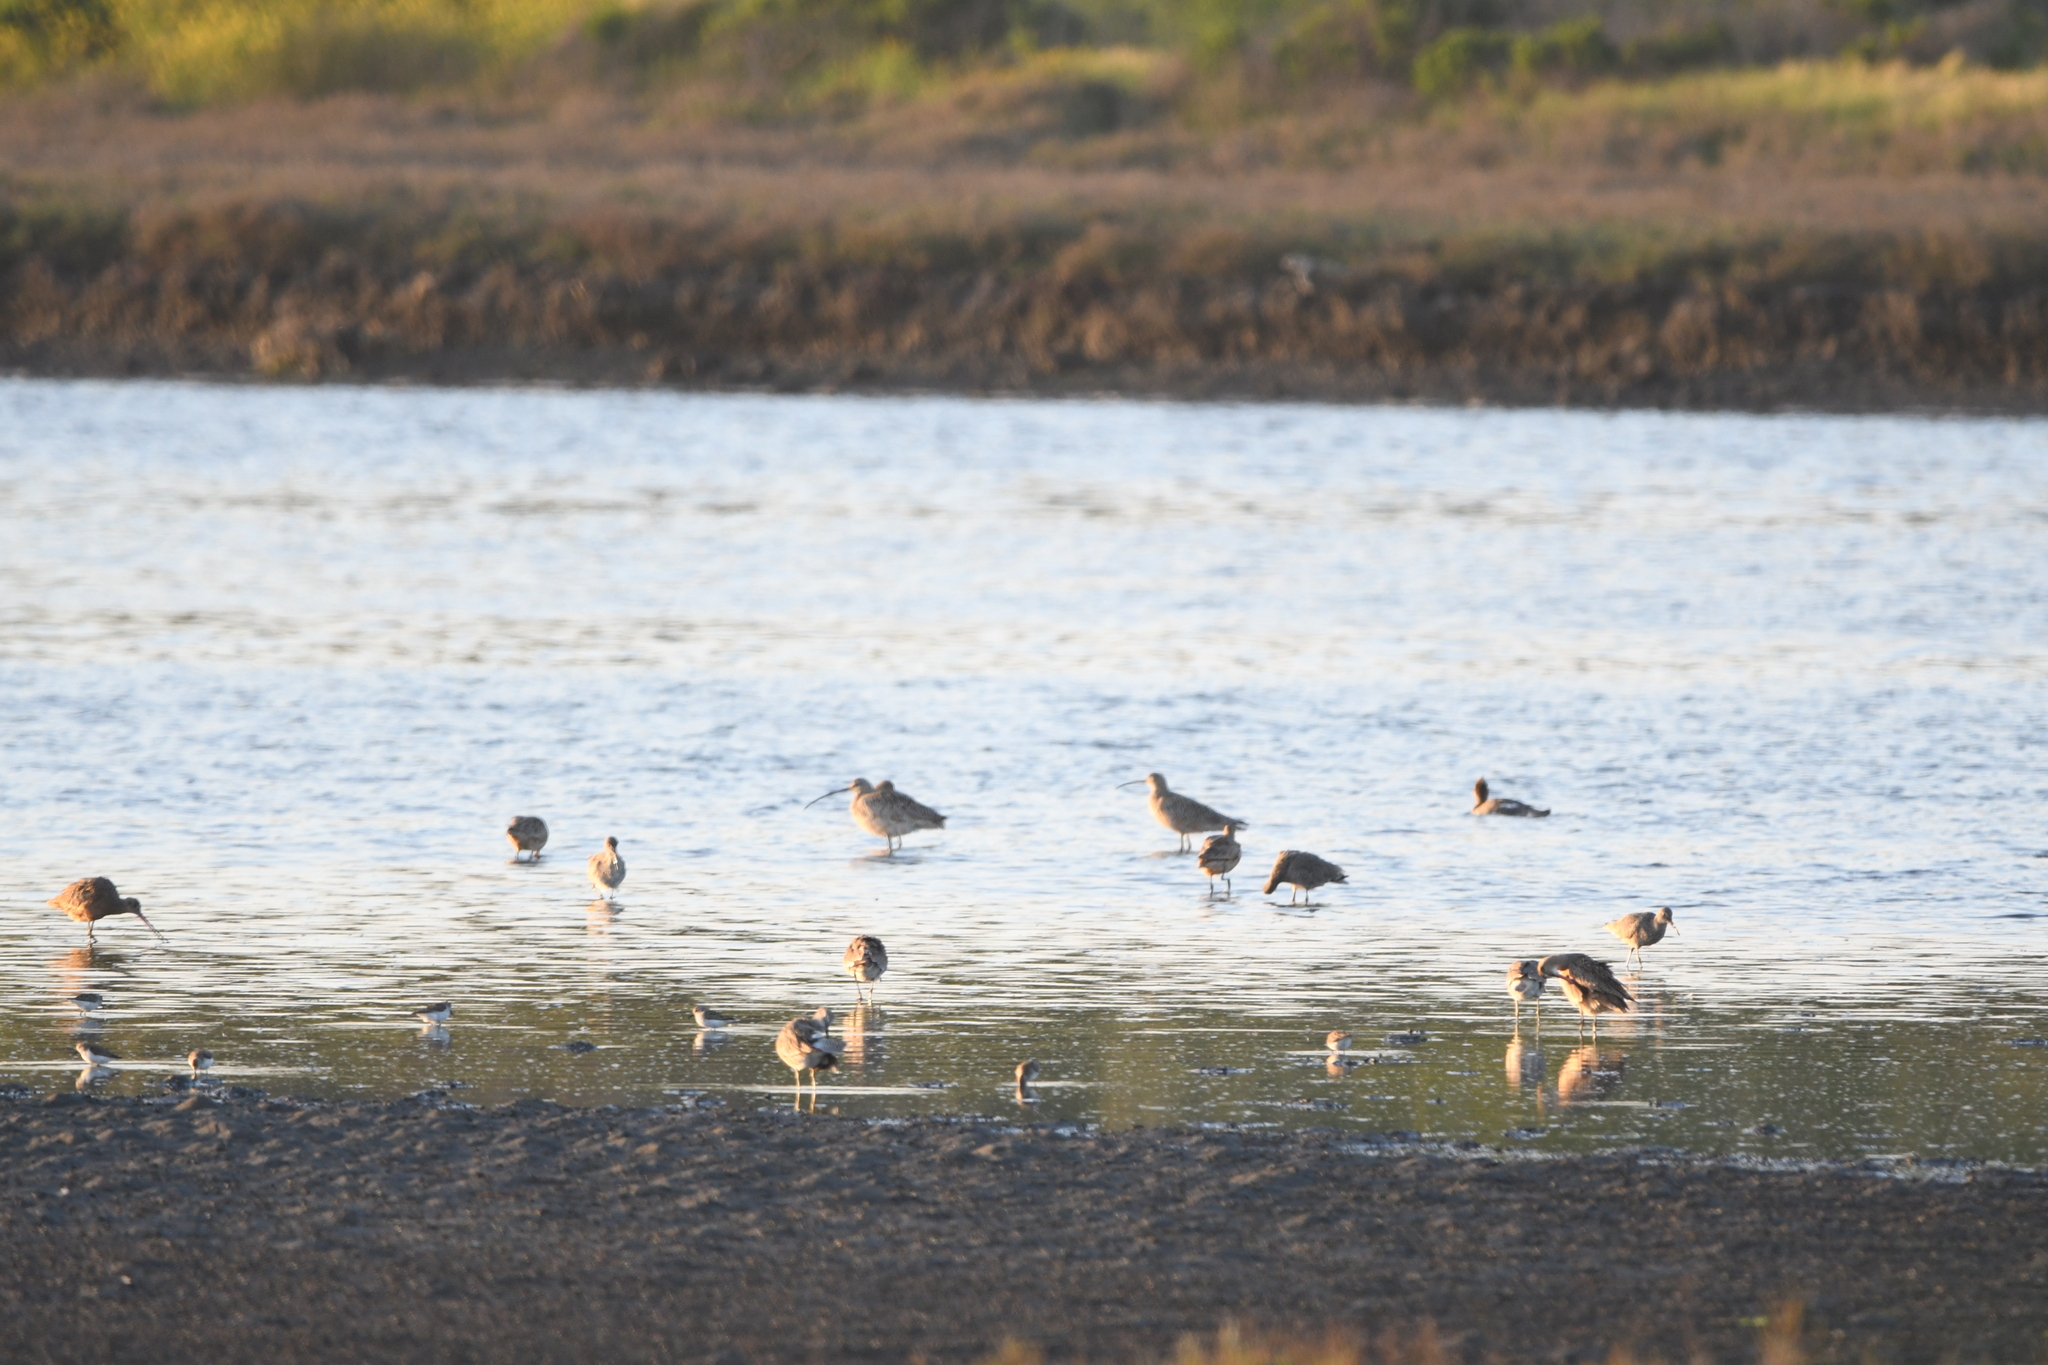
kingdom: Animalia
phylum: Chordata
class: Aves
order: Charadriiformes
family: Scolopacidae
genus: Numenius
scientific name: Numenius americanus
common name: Long-billed curlew
